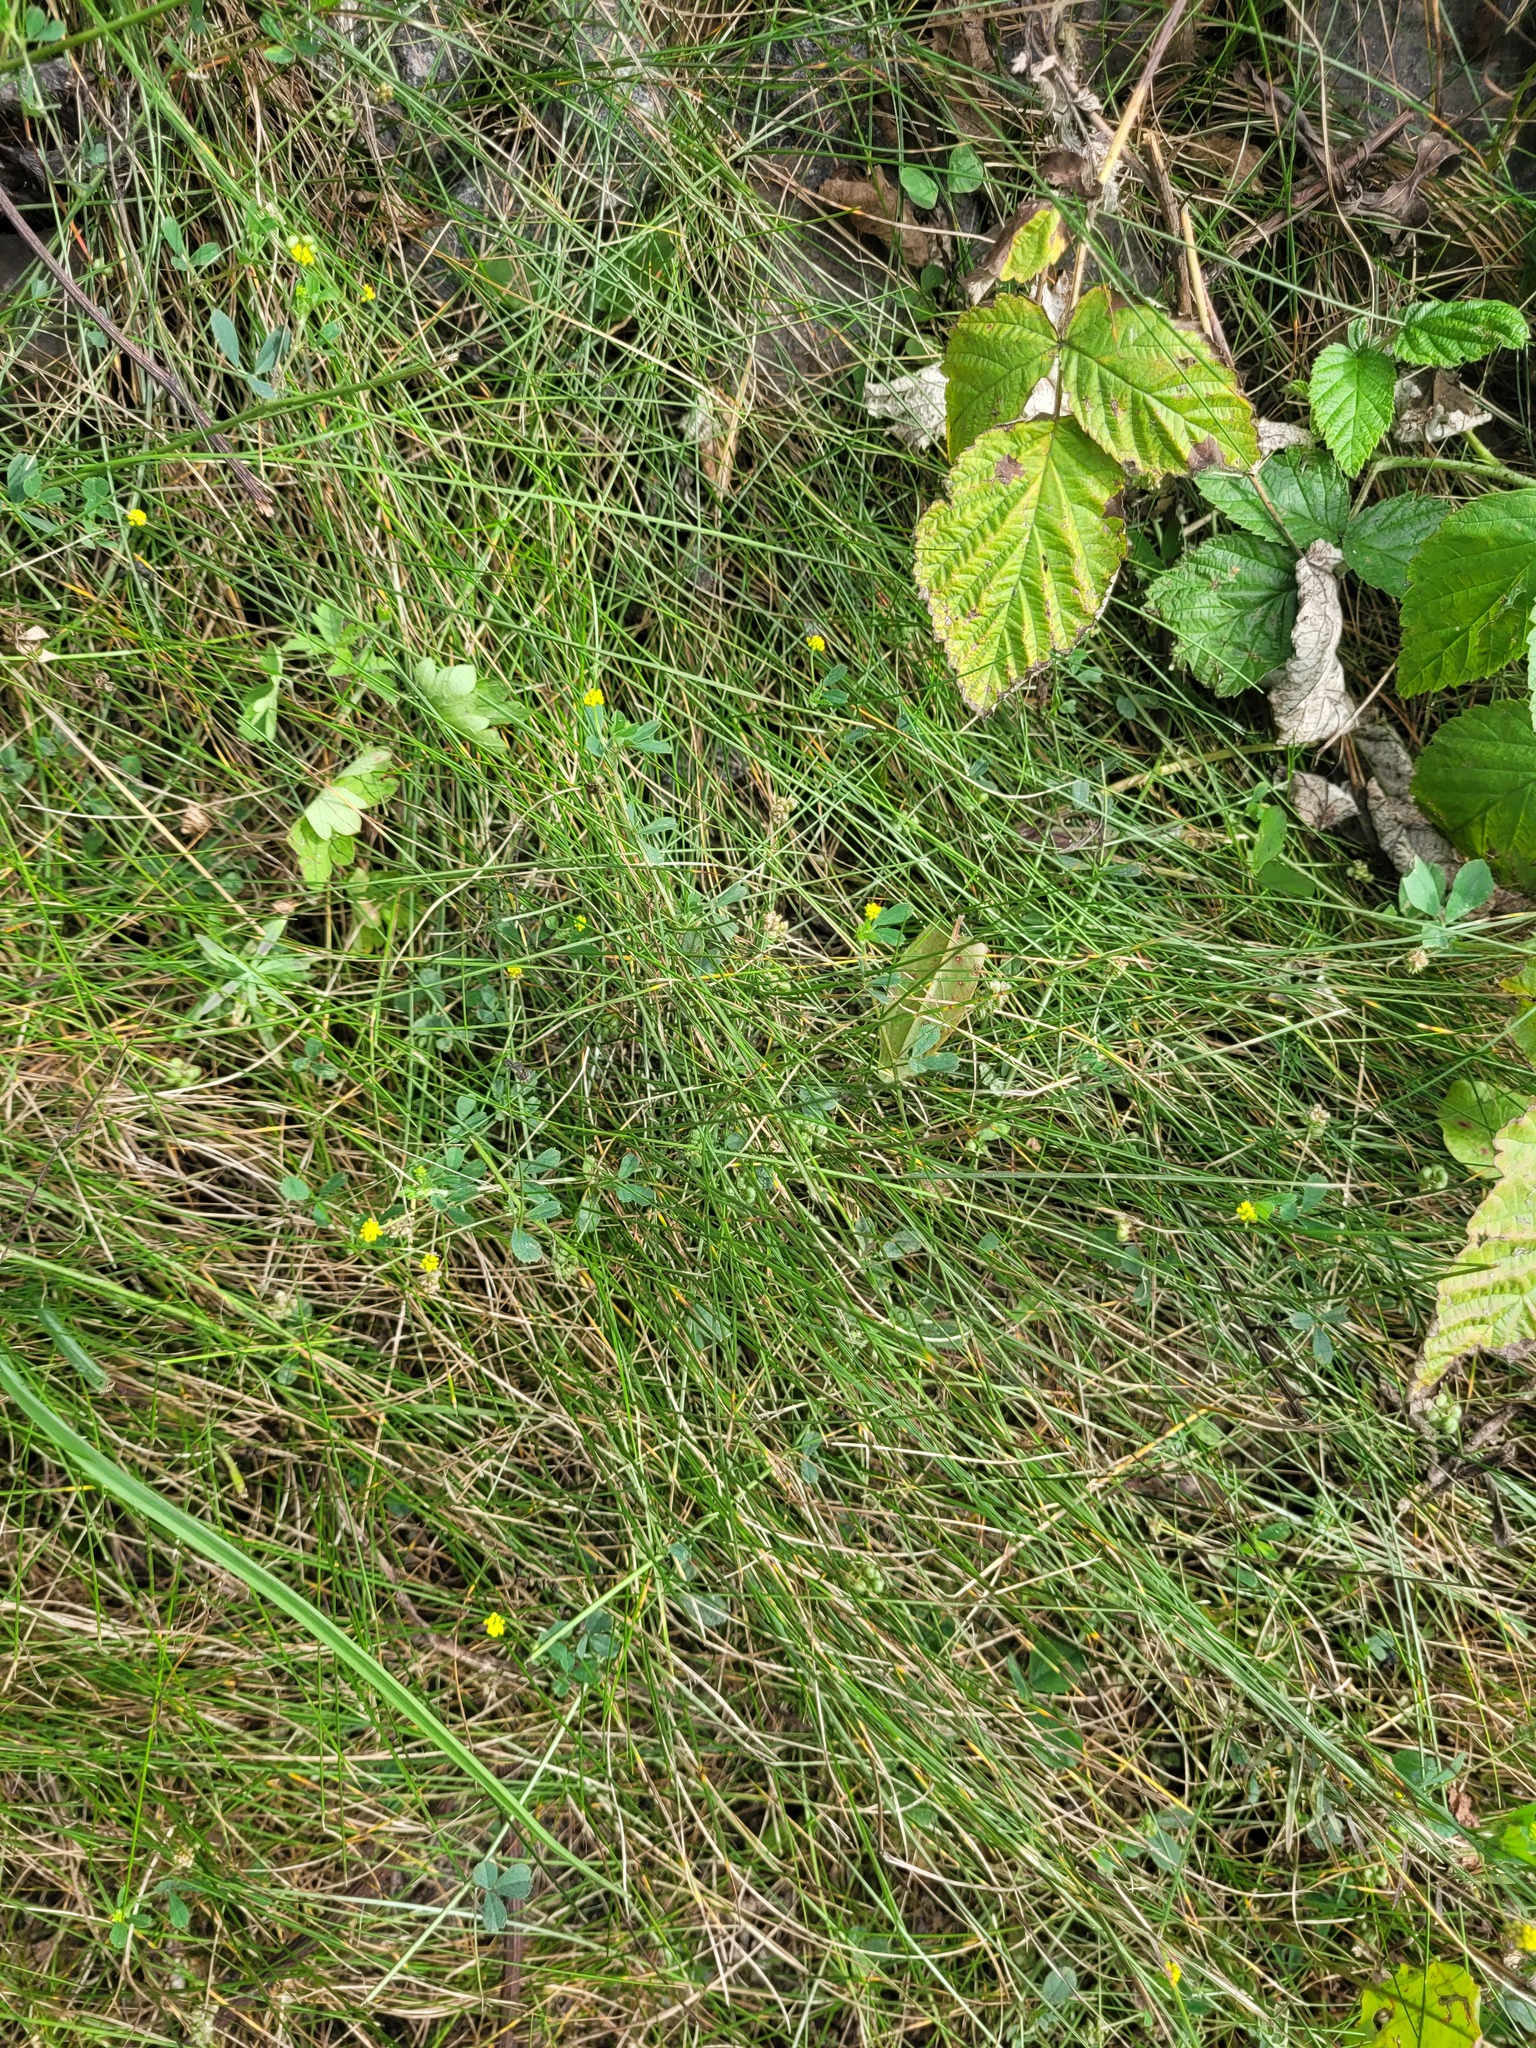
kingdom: Plantae
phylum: Tracheophyta
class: Magnoliopsida
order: Fabales
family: Fabaceae
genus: Medicago
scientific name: Medicago lupulina
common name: Black medick
